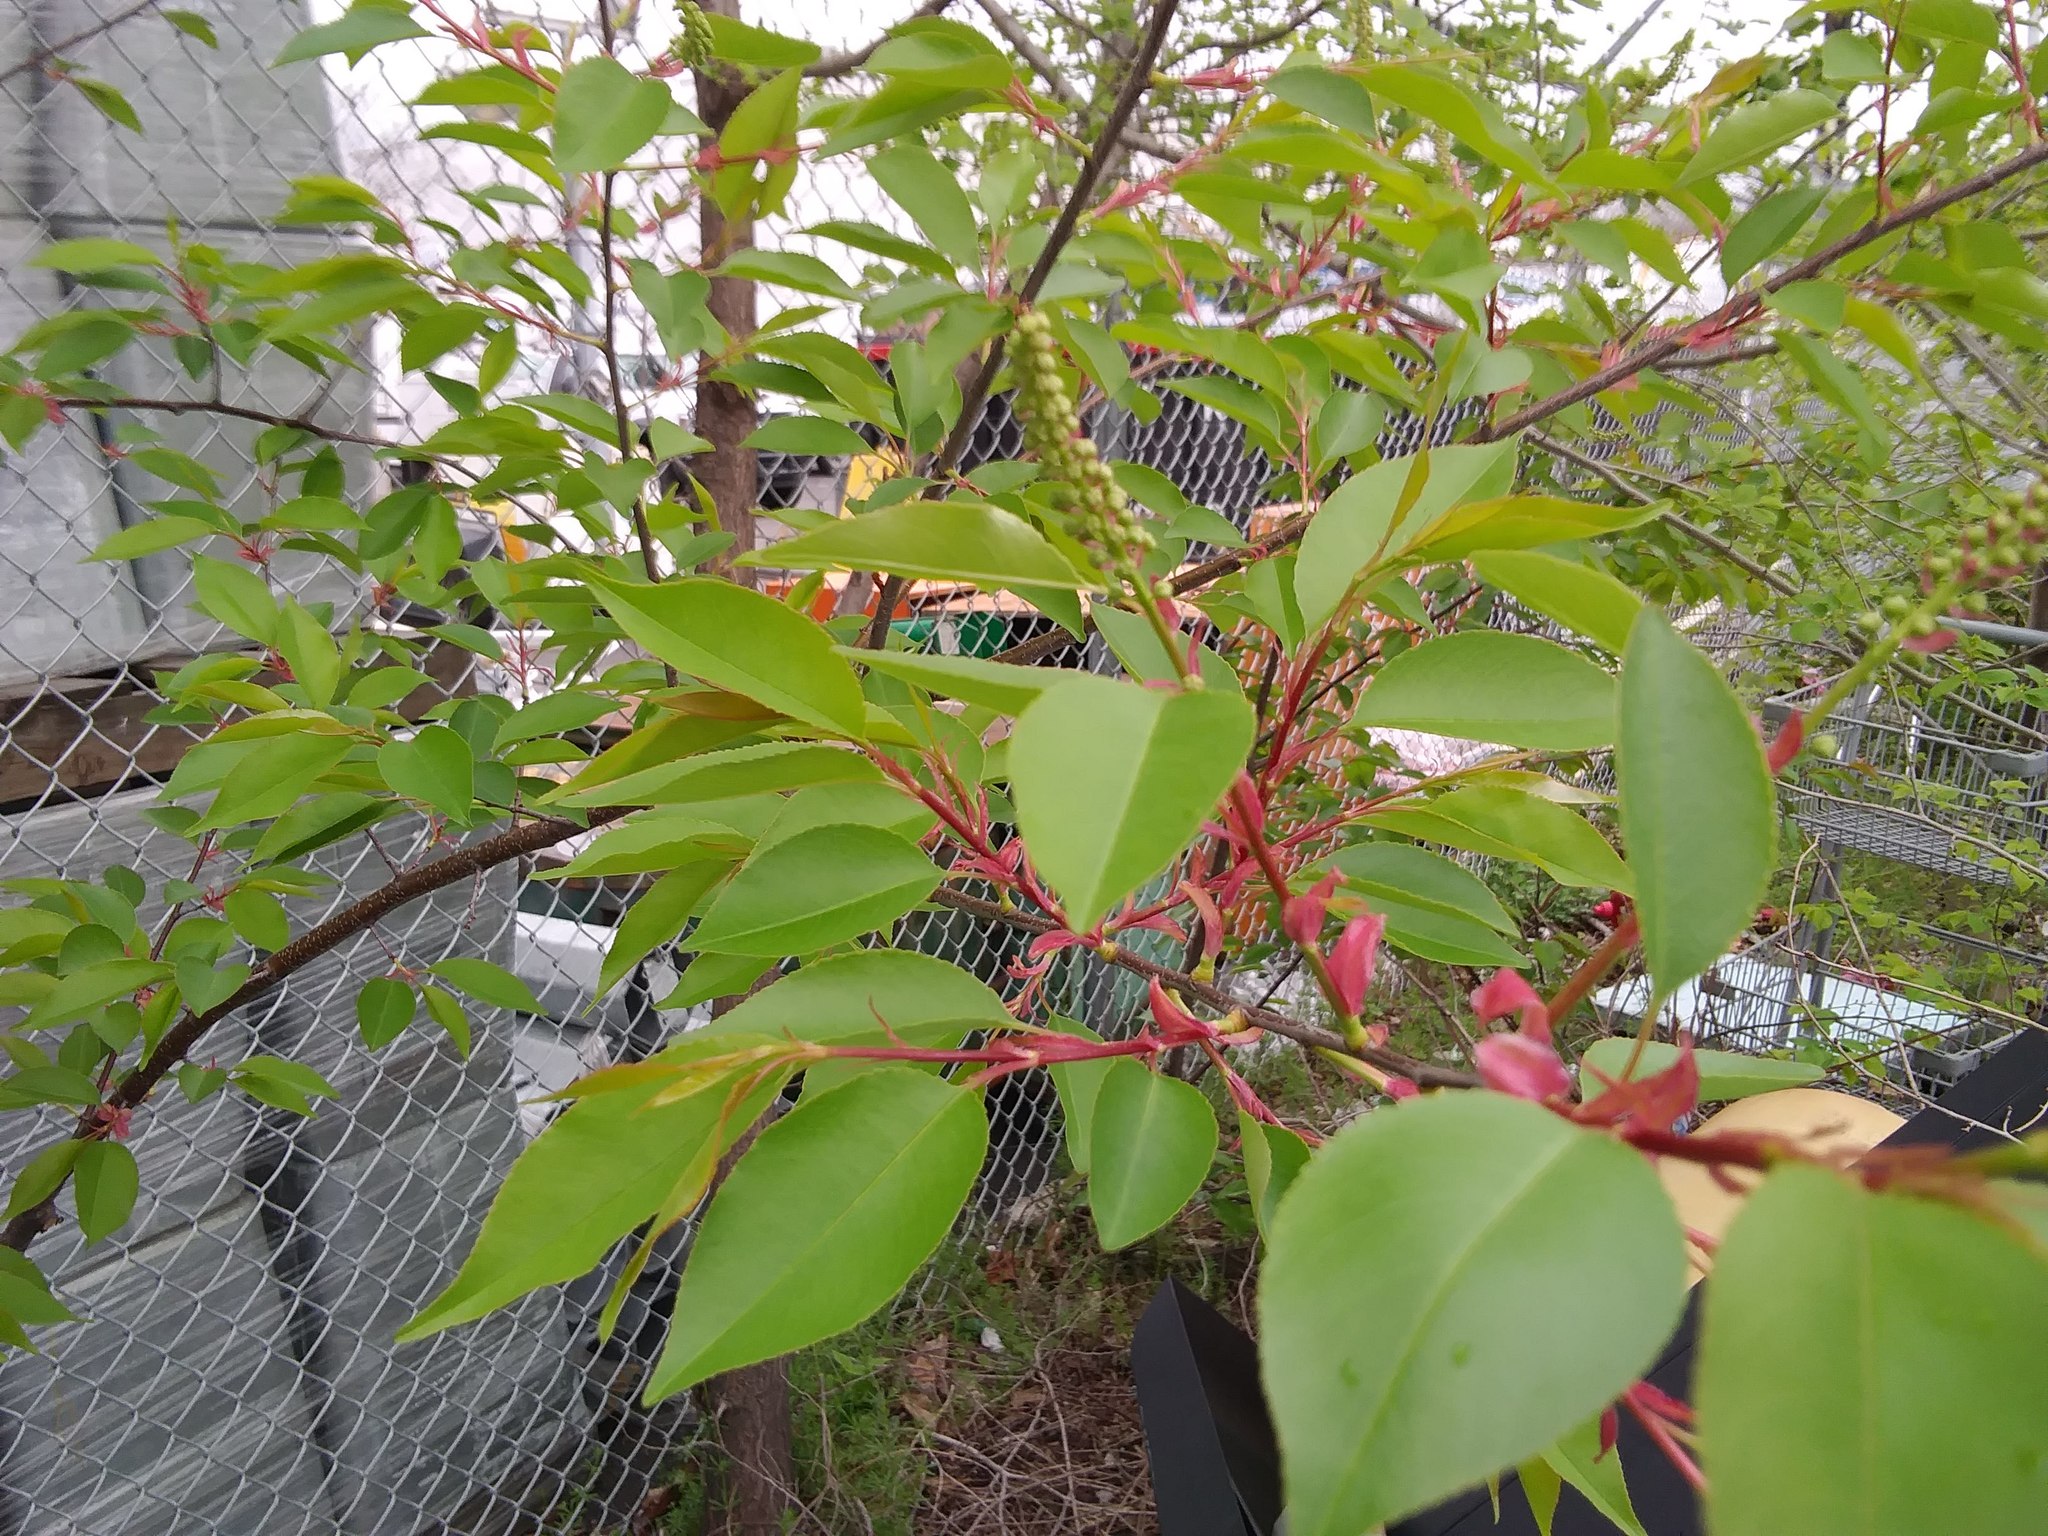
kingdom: Plantae
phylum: Tracheophyta
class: Magnoliopsida
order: Rosales
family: Rosaceae
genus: Prunus
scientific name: Prunus serotina
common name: Black cherry
